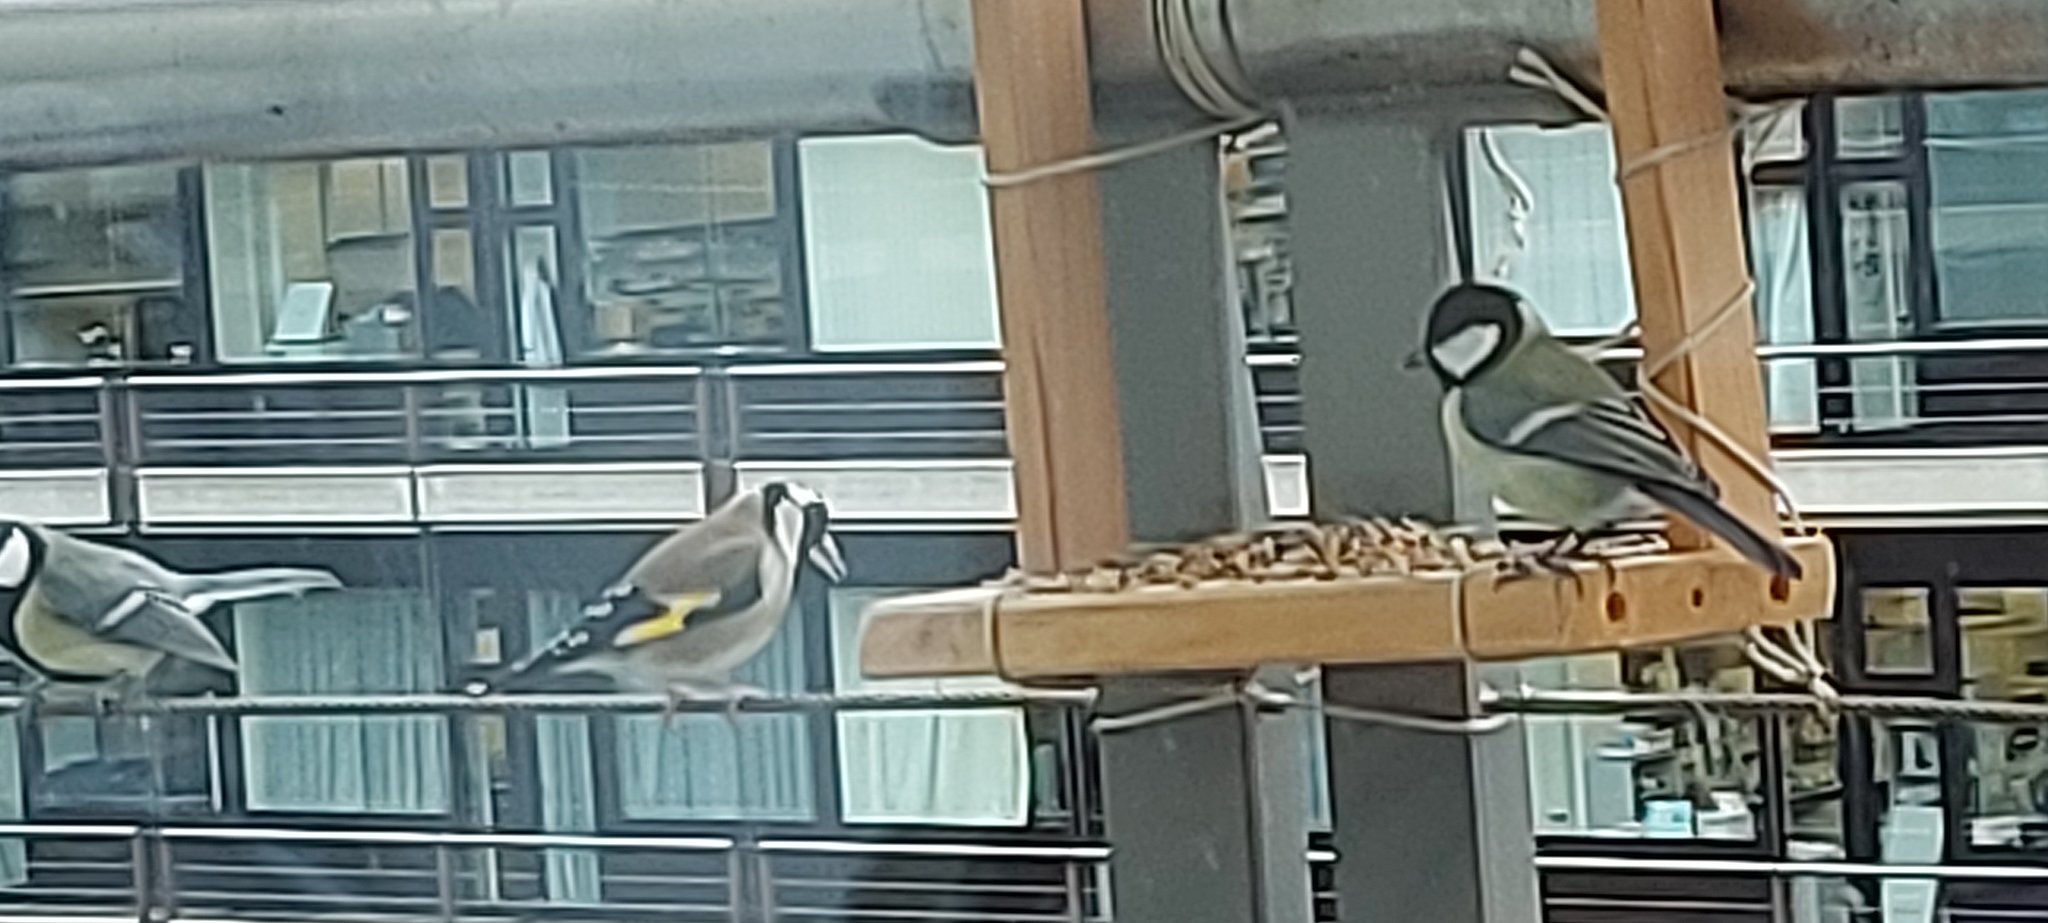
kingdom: Animalia
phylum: Chordata
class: Aves
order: Passeriformes
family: Fringillidae
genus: Carduelis
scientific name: Carduelis carduelis
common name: European goldfinch
